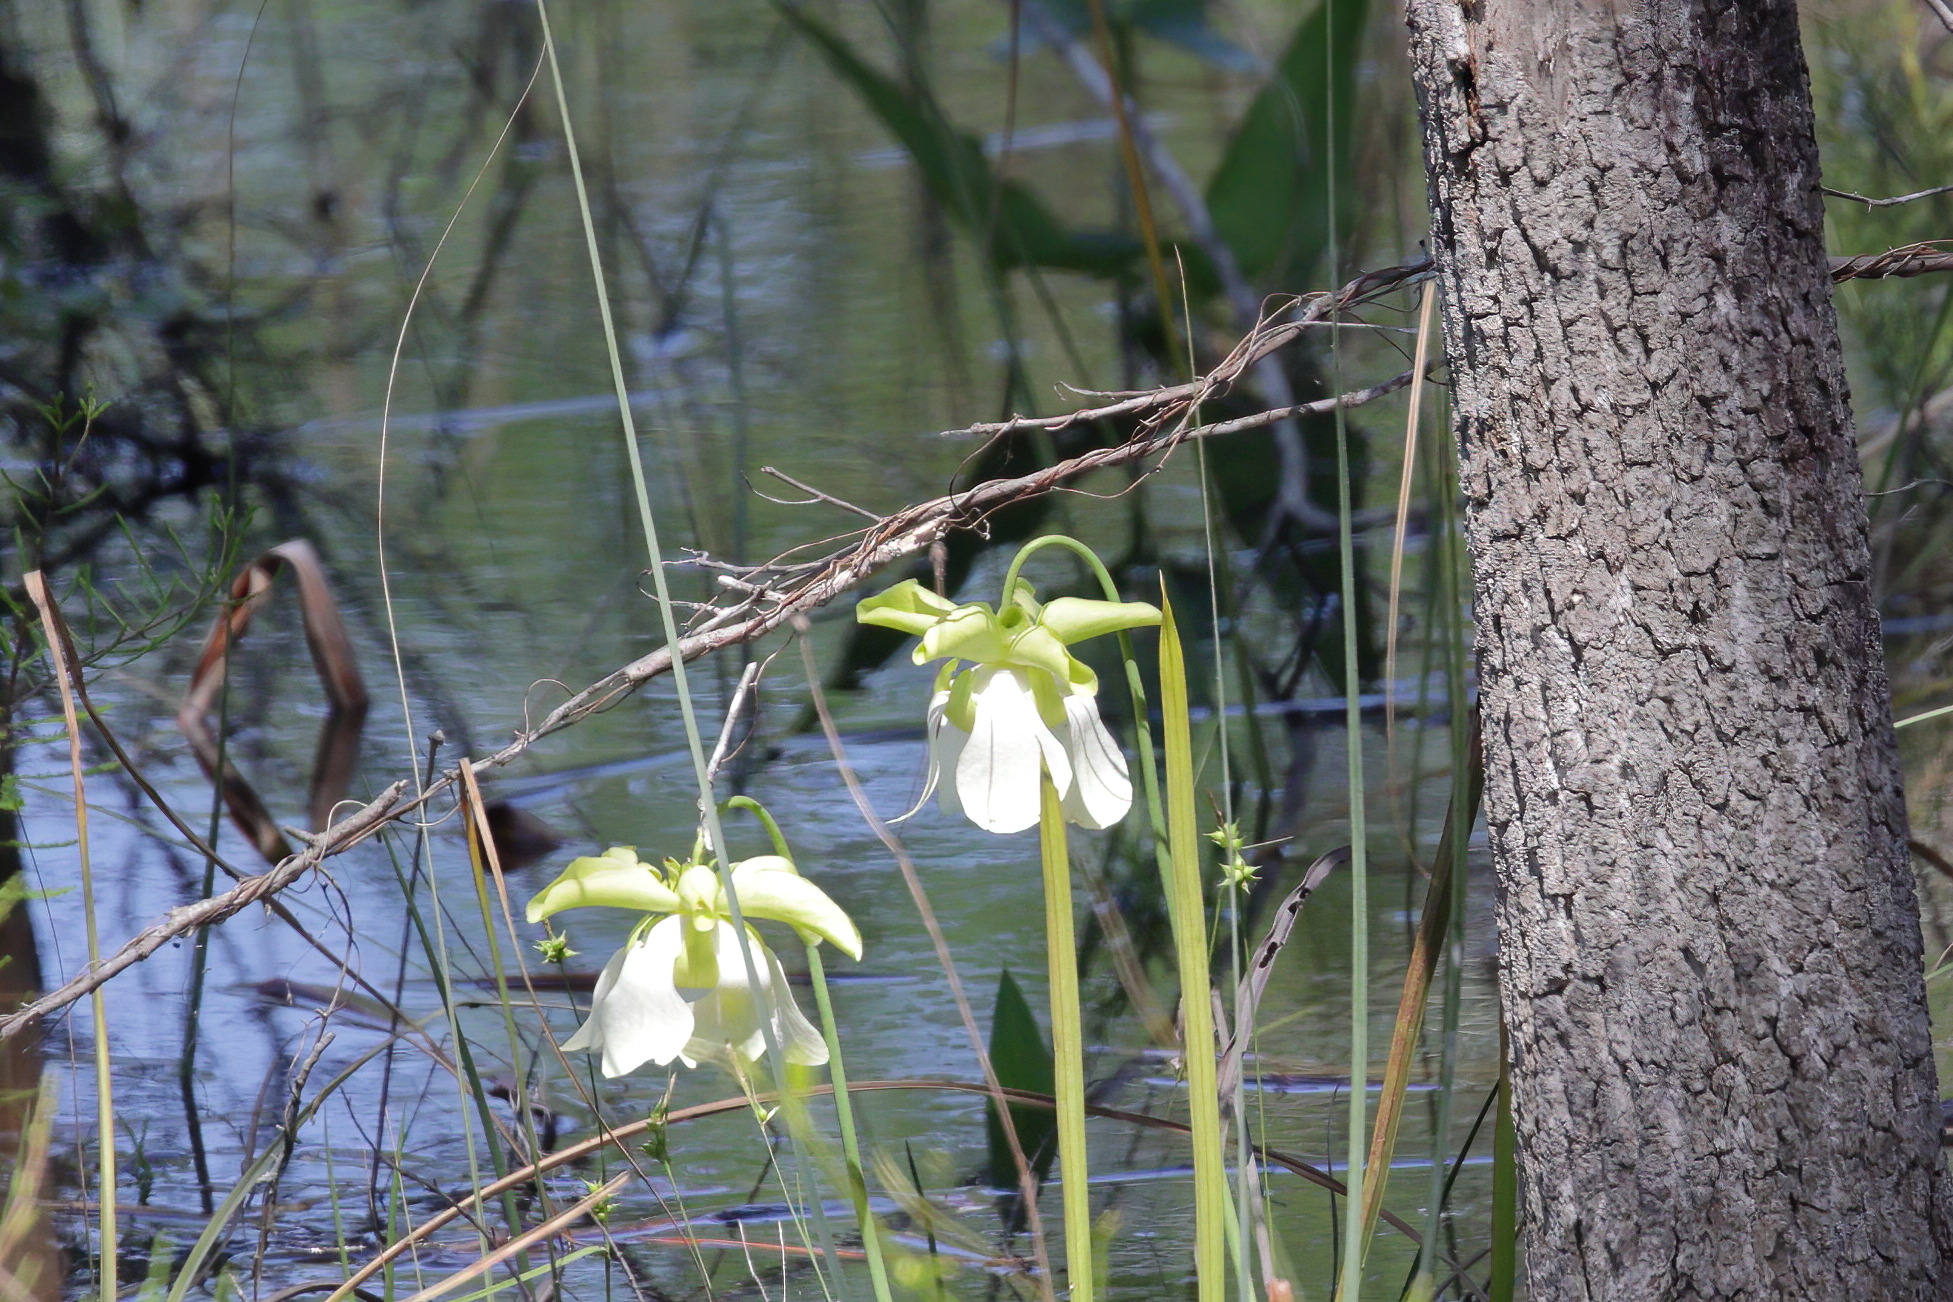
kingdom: Plantae
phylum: Tracheophyta
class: Magnoliopsida
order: Ericales
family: Sarraceniaceae
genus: Sarracenia
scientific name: Sarracenia alata
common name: Yellow trumpets
